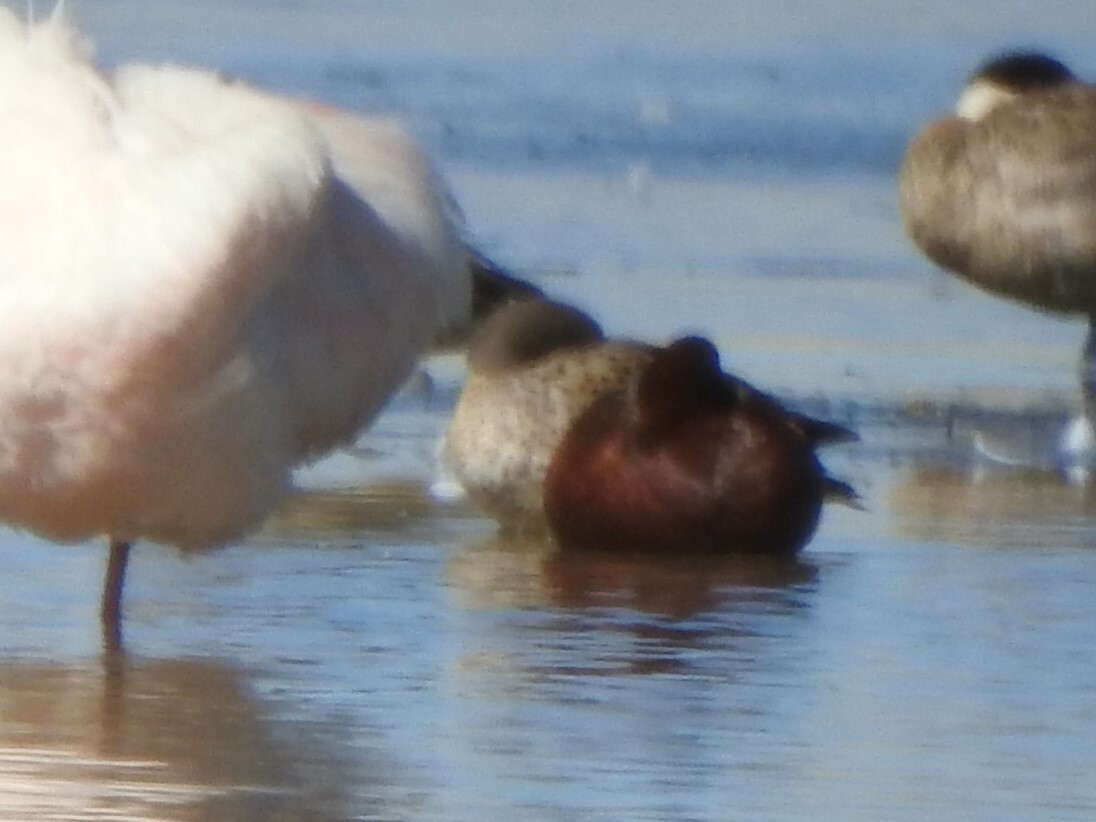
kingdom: Animalia
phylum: Chordata
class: Aves
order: Anseriformes
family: Anatidae
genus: Spatula
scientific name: Spatula cyanoptera
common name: Cinnamon teal
